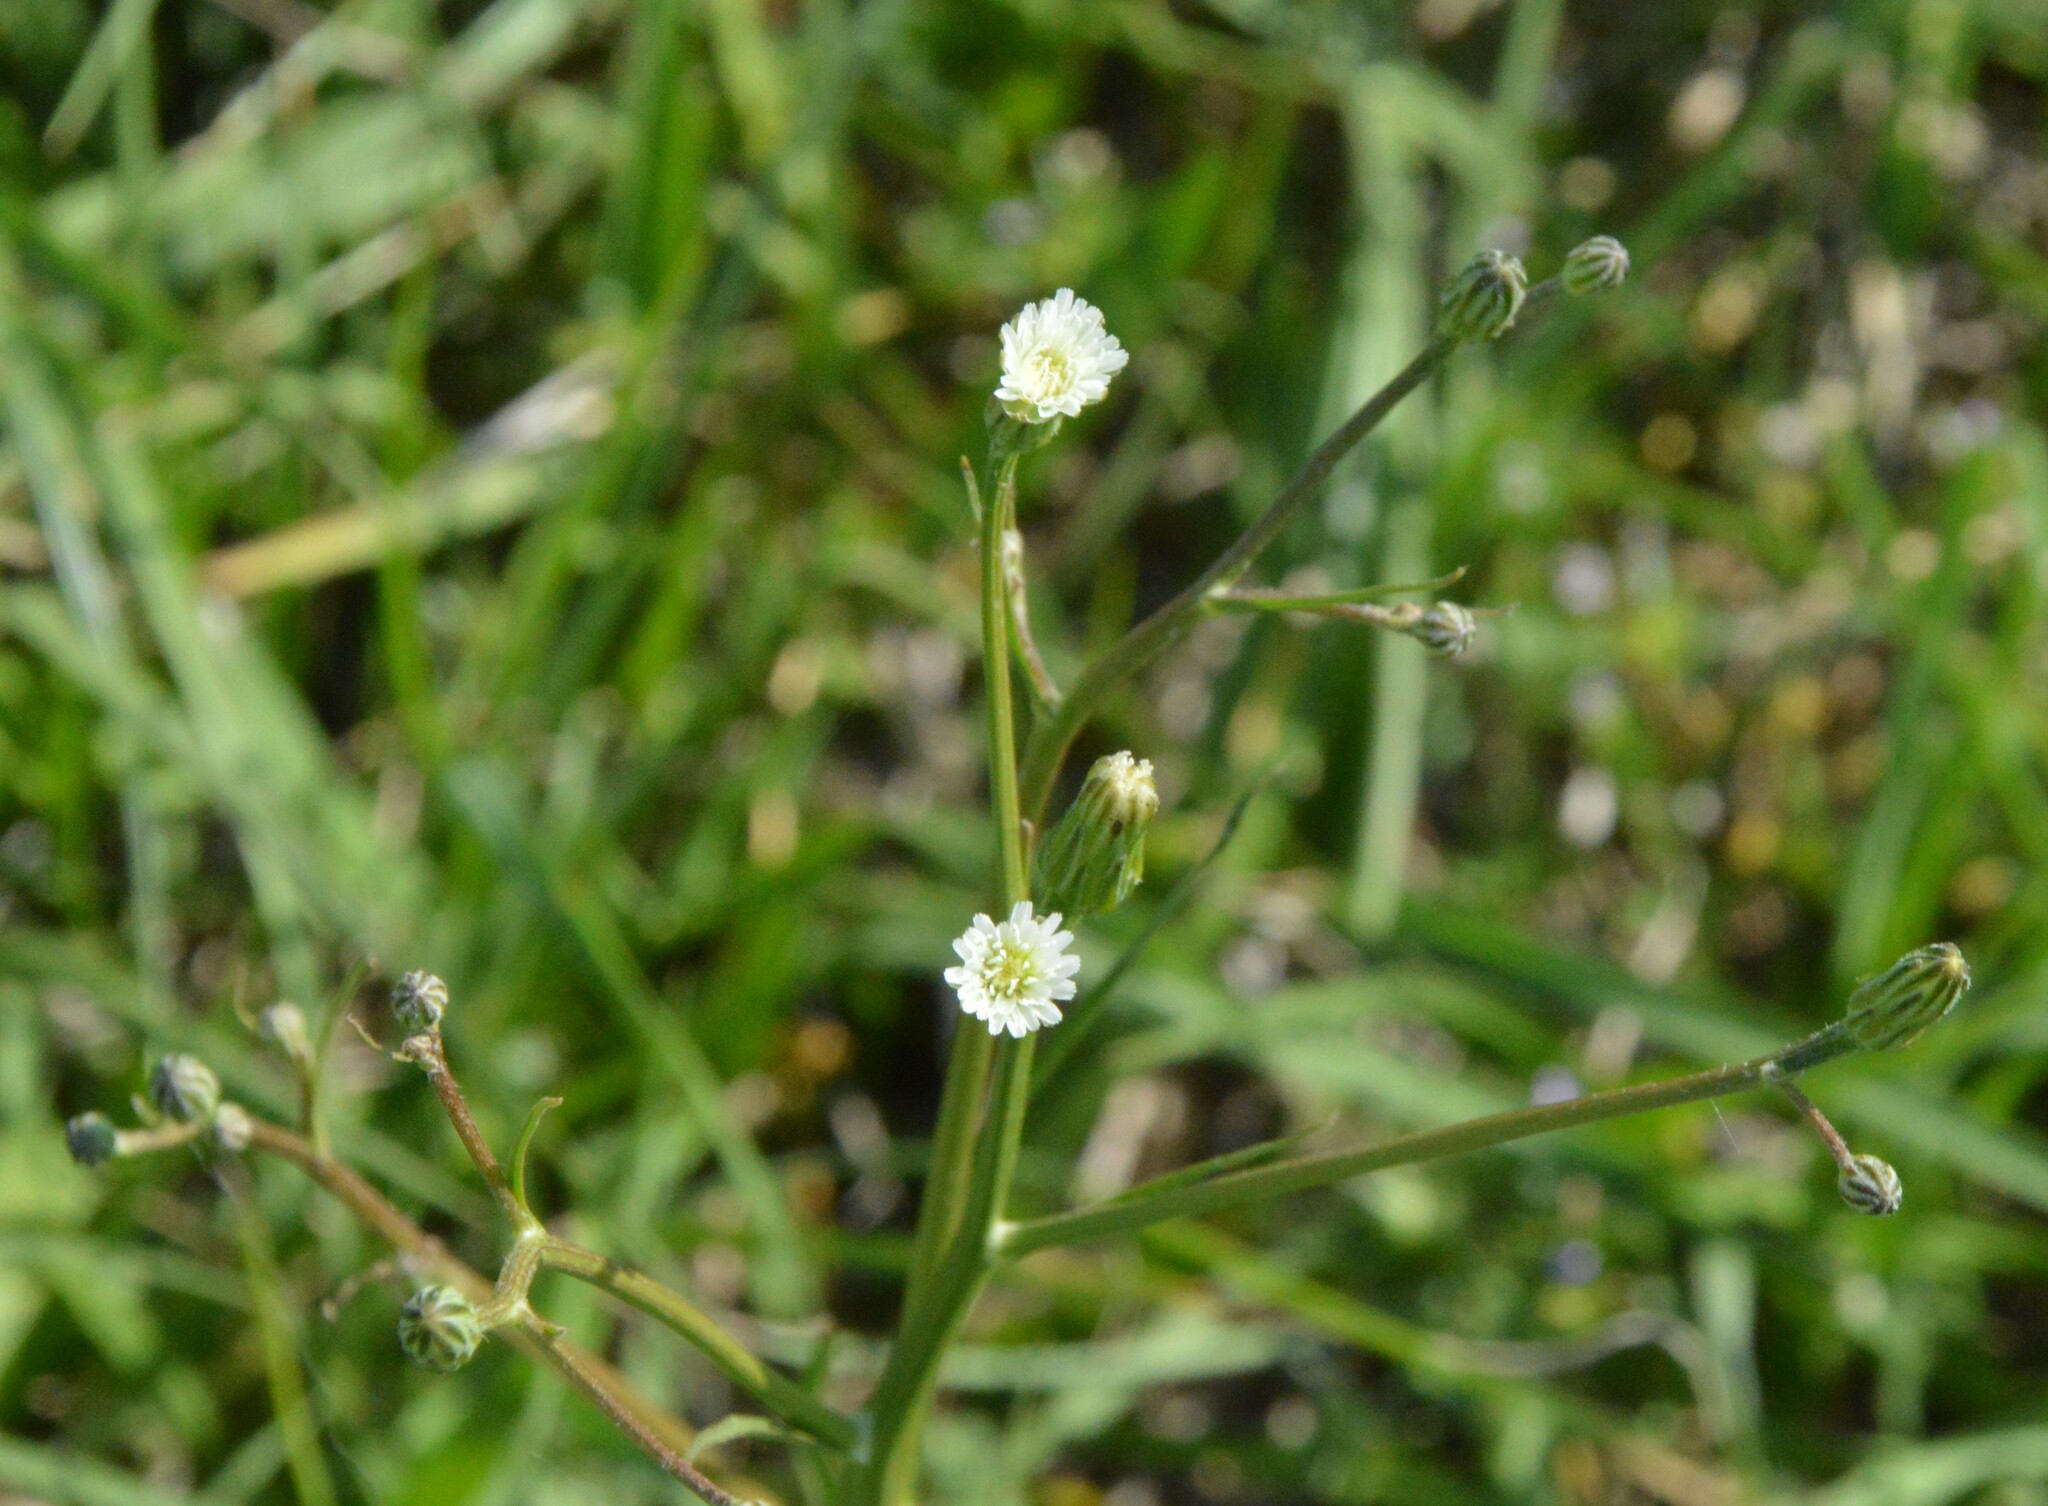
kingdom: Plantae
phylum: Tracheophyta
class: Magnoliopsida
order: Asterales
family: Asteraceae
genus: Hypochaeris
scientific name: Hypochaeris albiflora
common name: White flatweed
